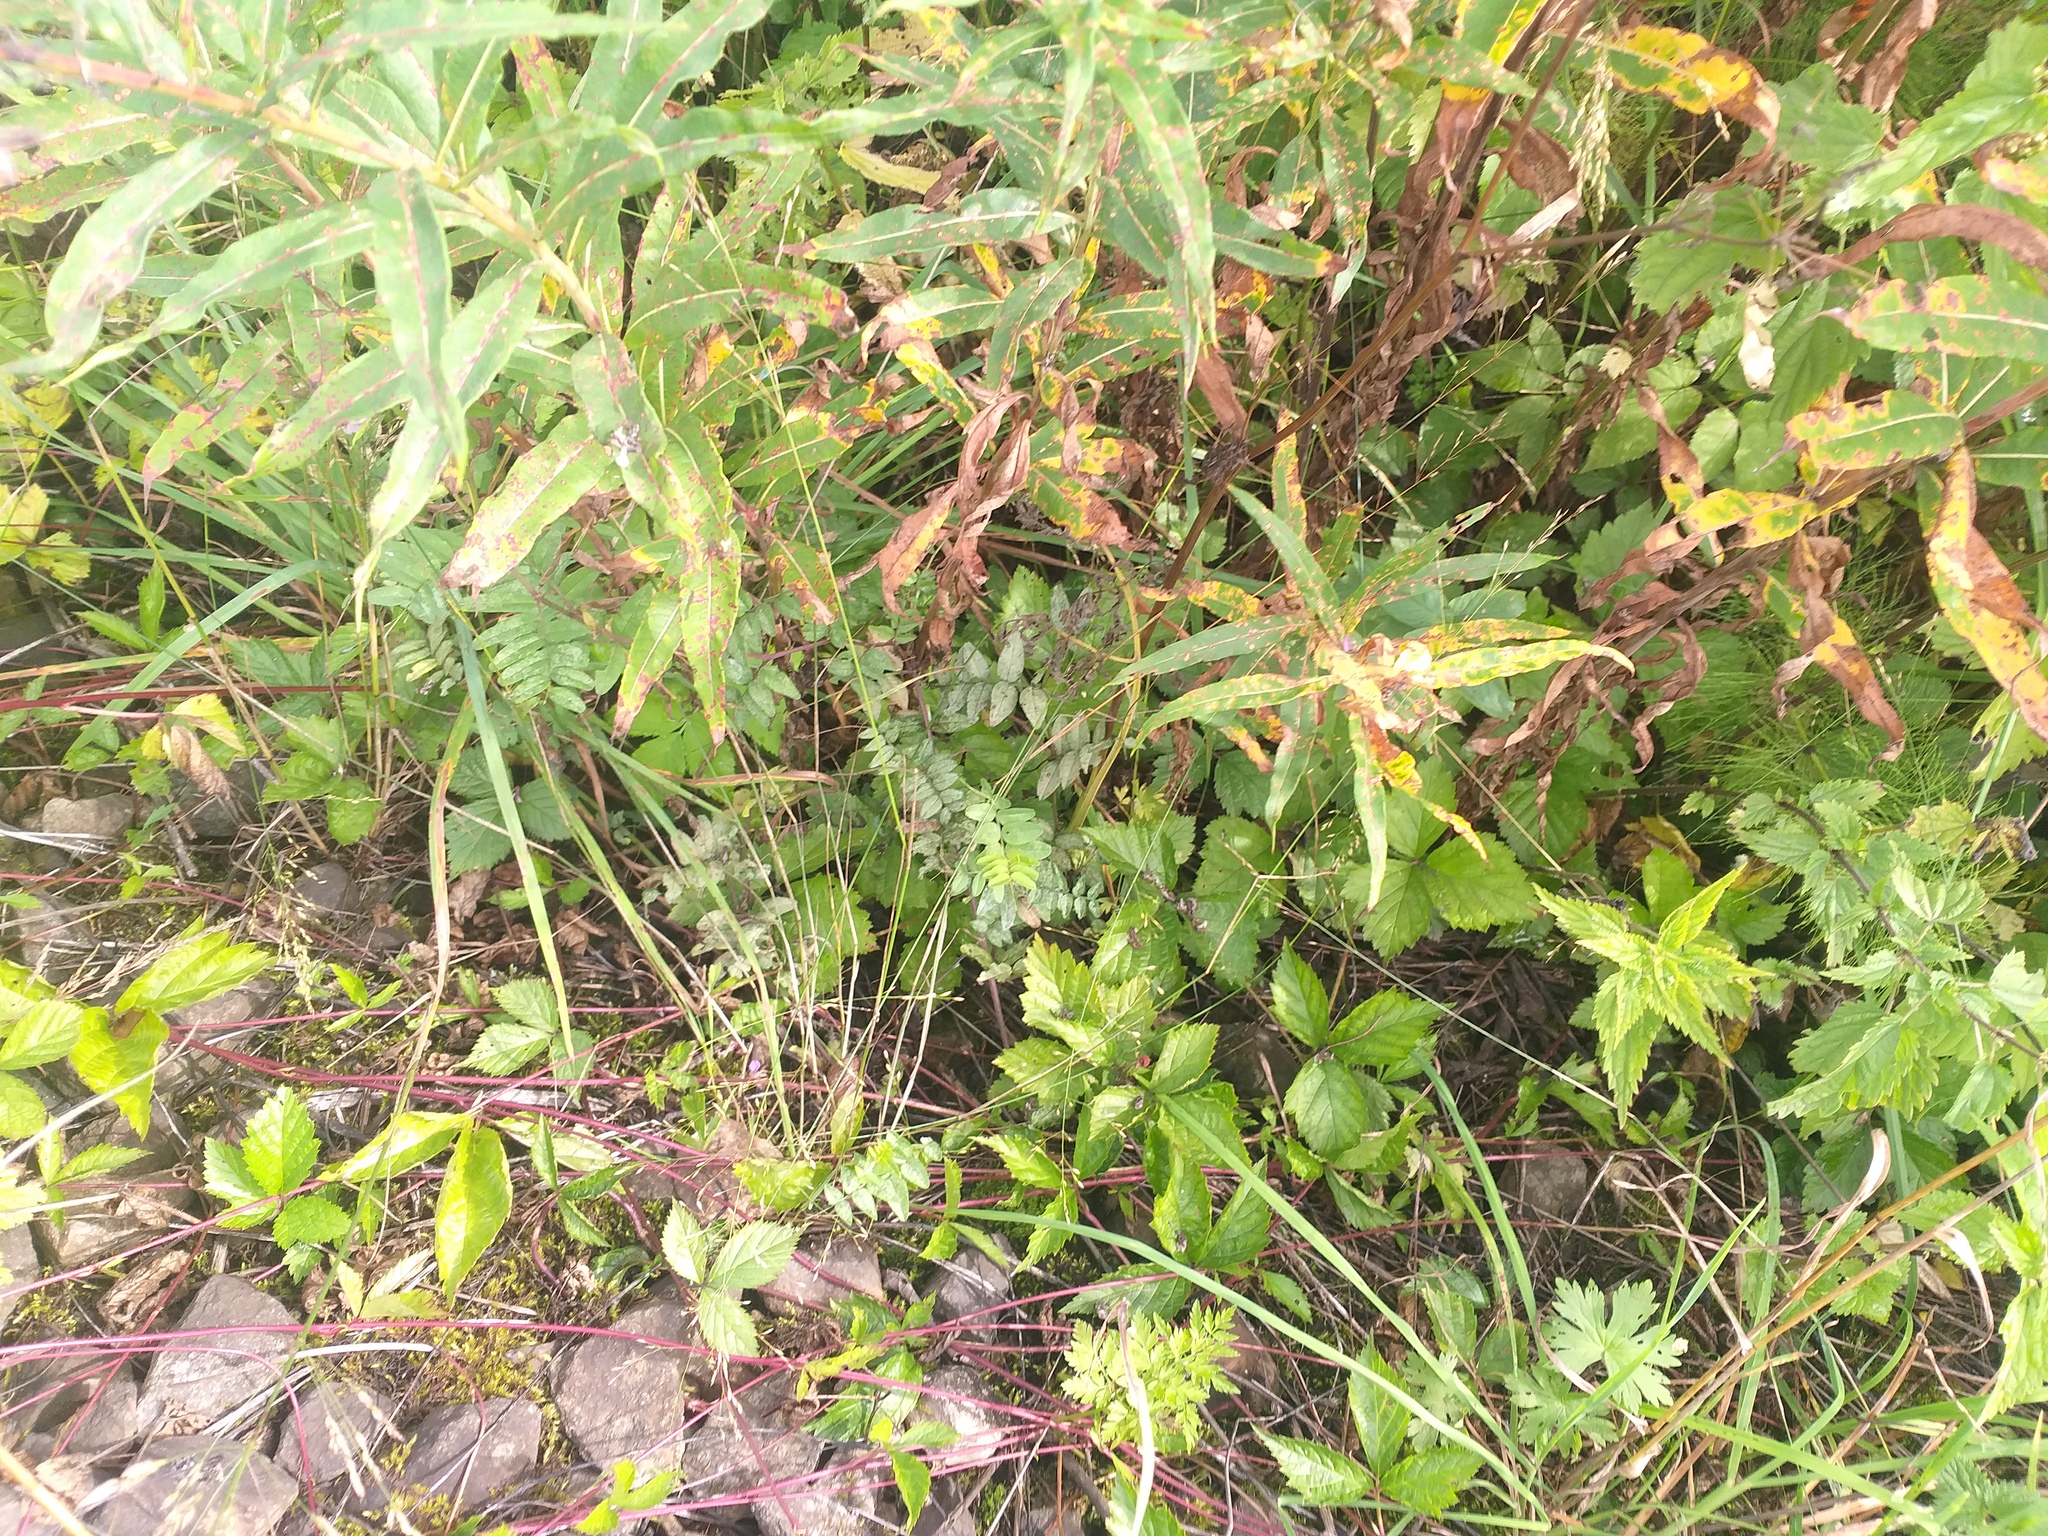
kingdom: Plantae
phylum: Tracheophyta
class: Magnoliopsida
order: Fabales
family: Fabaceae
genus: Vicia
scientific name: Vicia sepium
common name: Bush vetch
